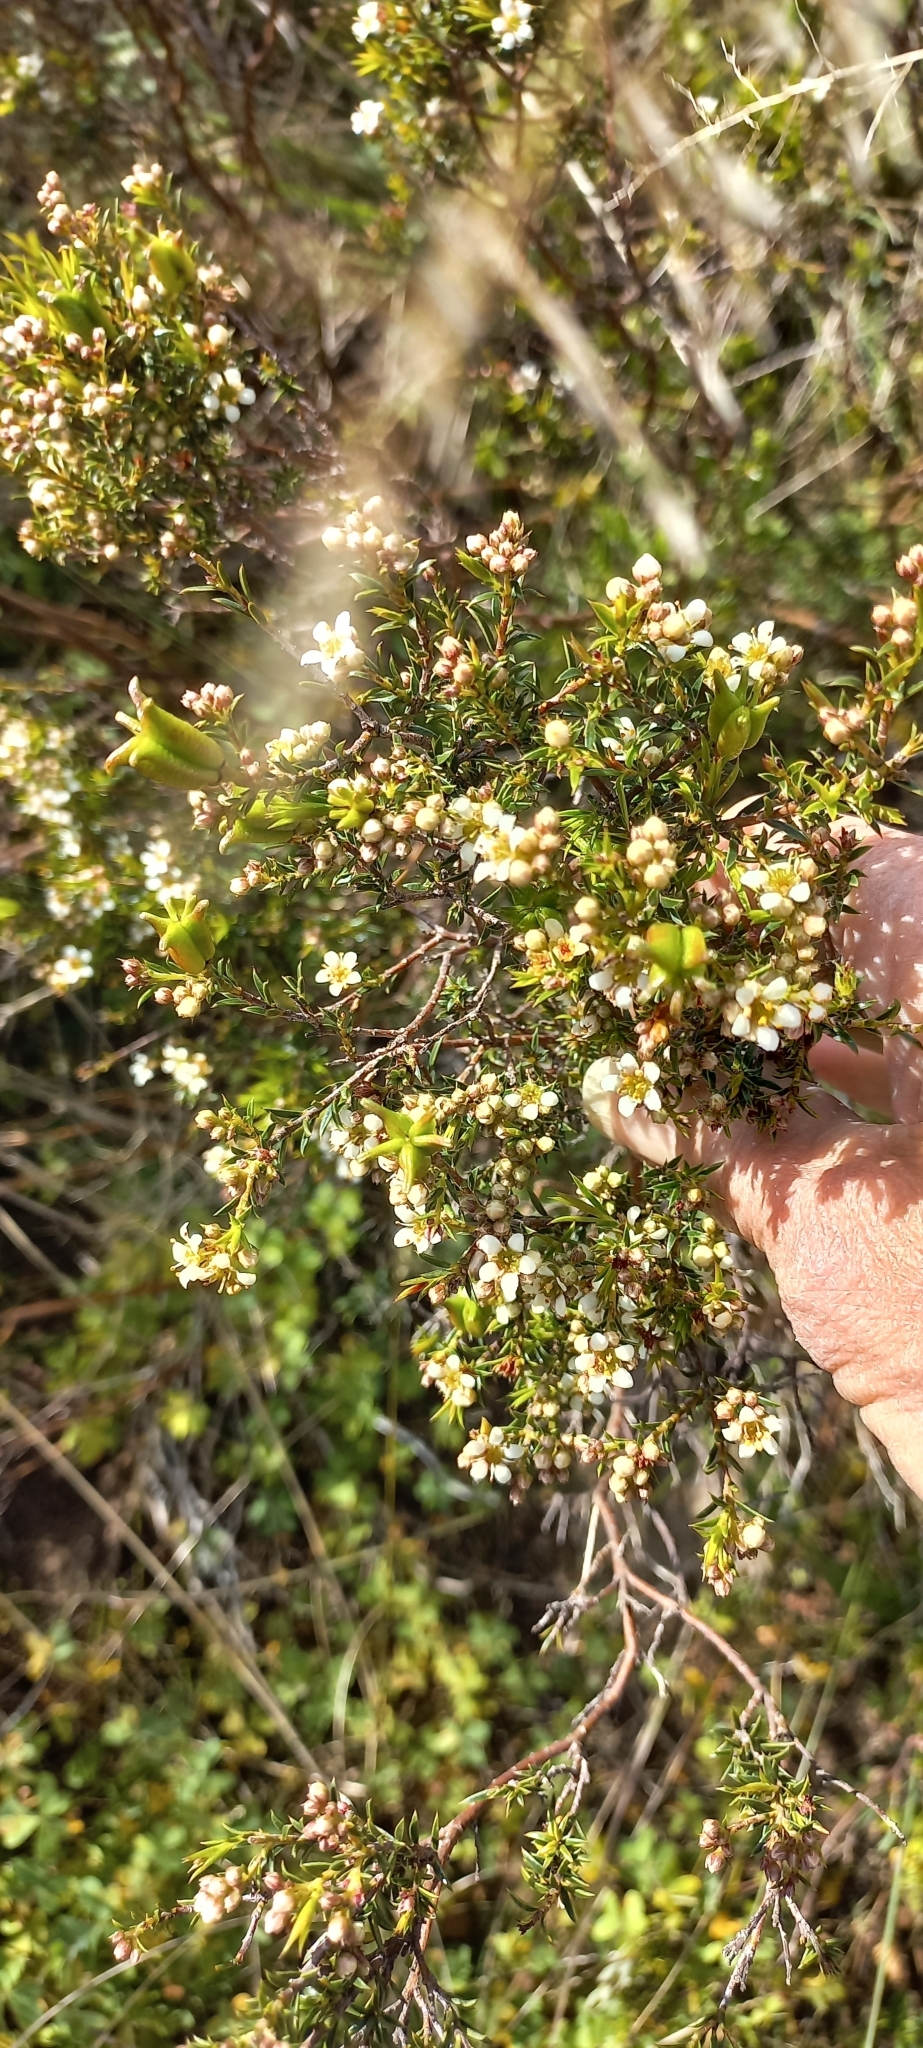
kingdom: Plantae
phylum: Tracheophyta
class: Magnoliopsida
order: Sapindales
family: Rutaceae
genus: Diosma
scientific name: Diosma hirsuta
